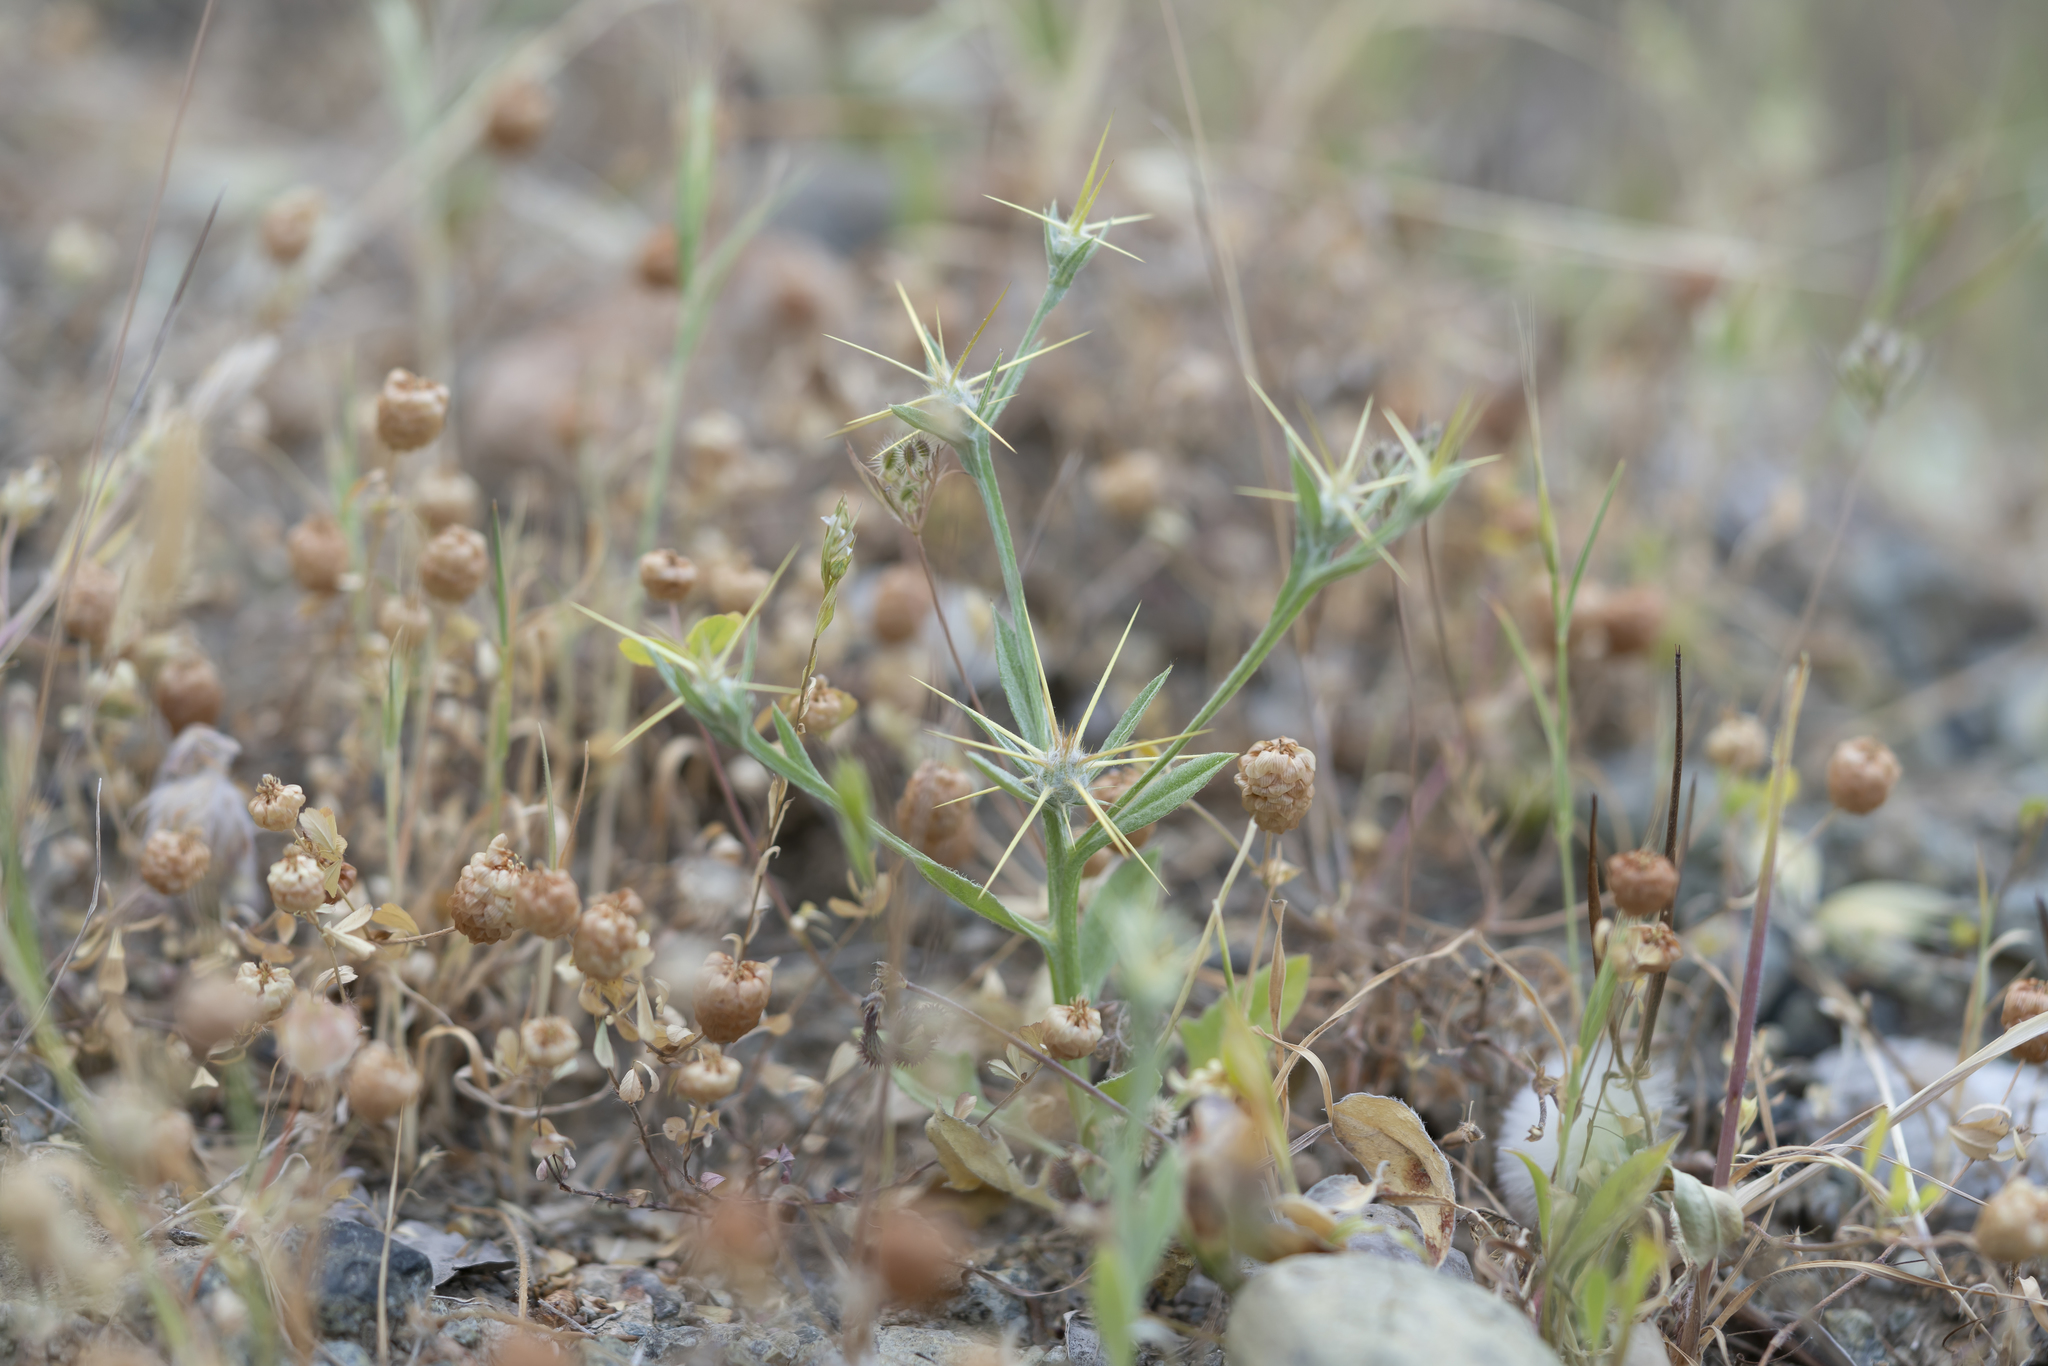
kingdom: Plantae
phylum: Tracheophyta
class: Magnoliopsida
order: Asterales
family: Asteraceae
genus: Centaurea
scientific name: Centaurea solstitialis
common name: Yellow star-thistle
